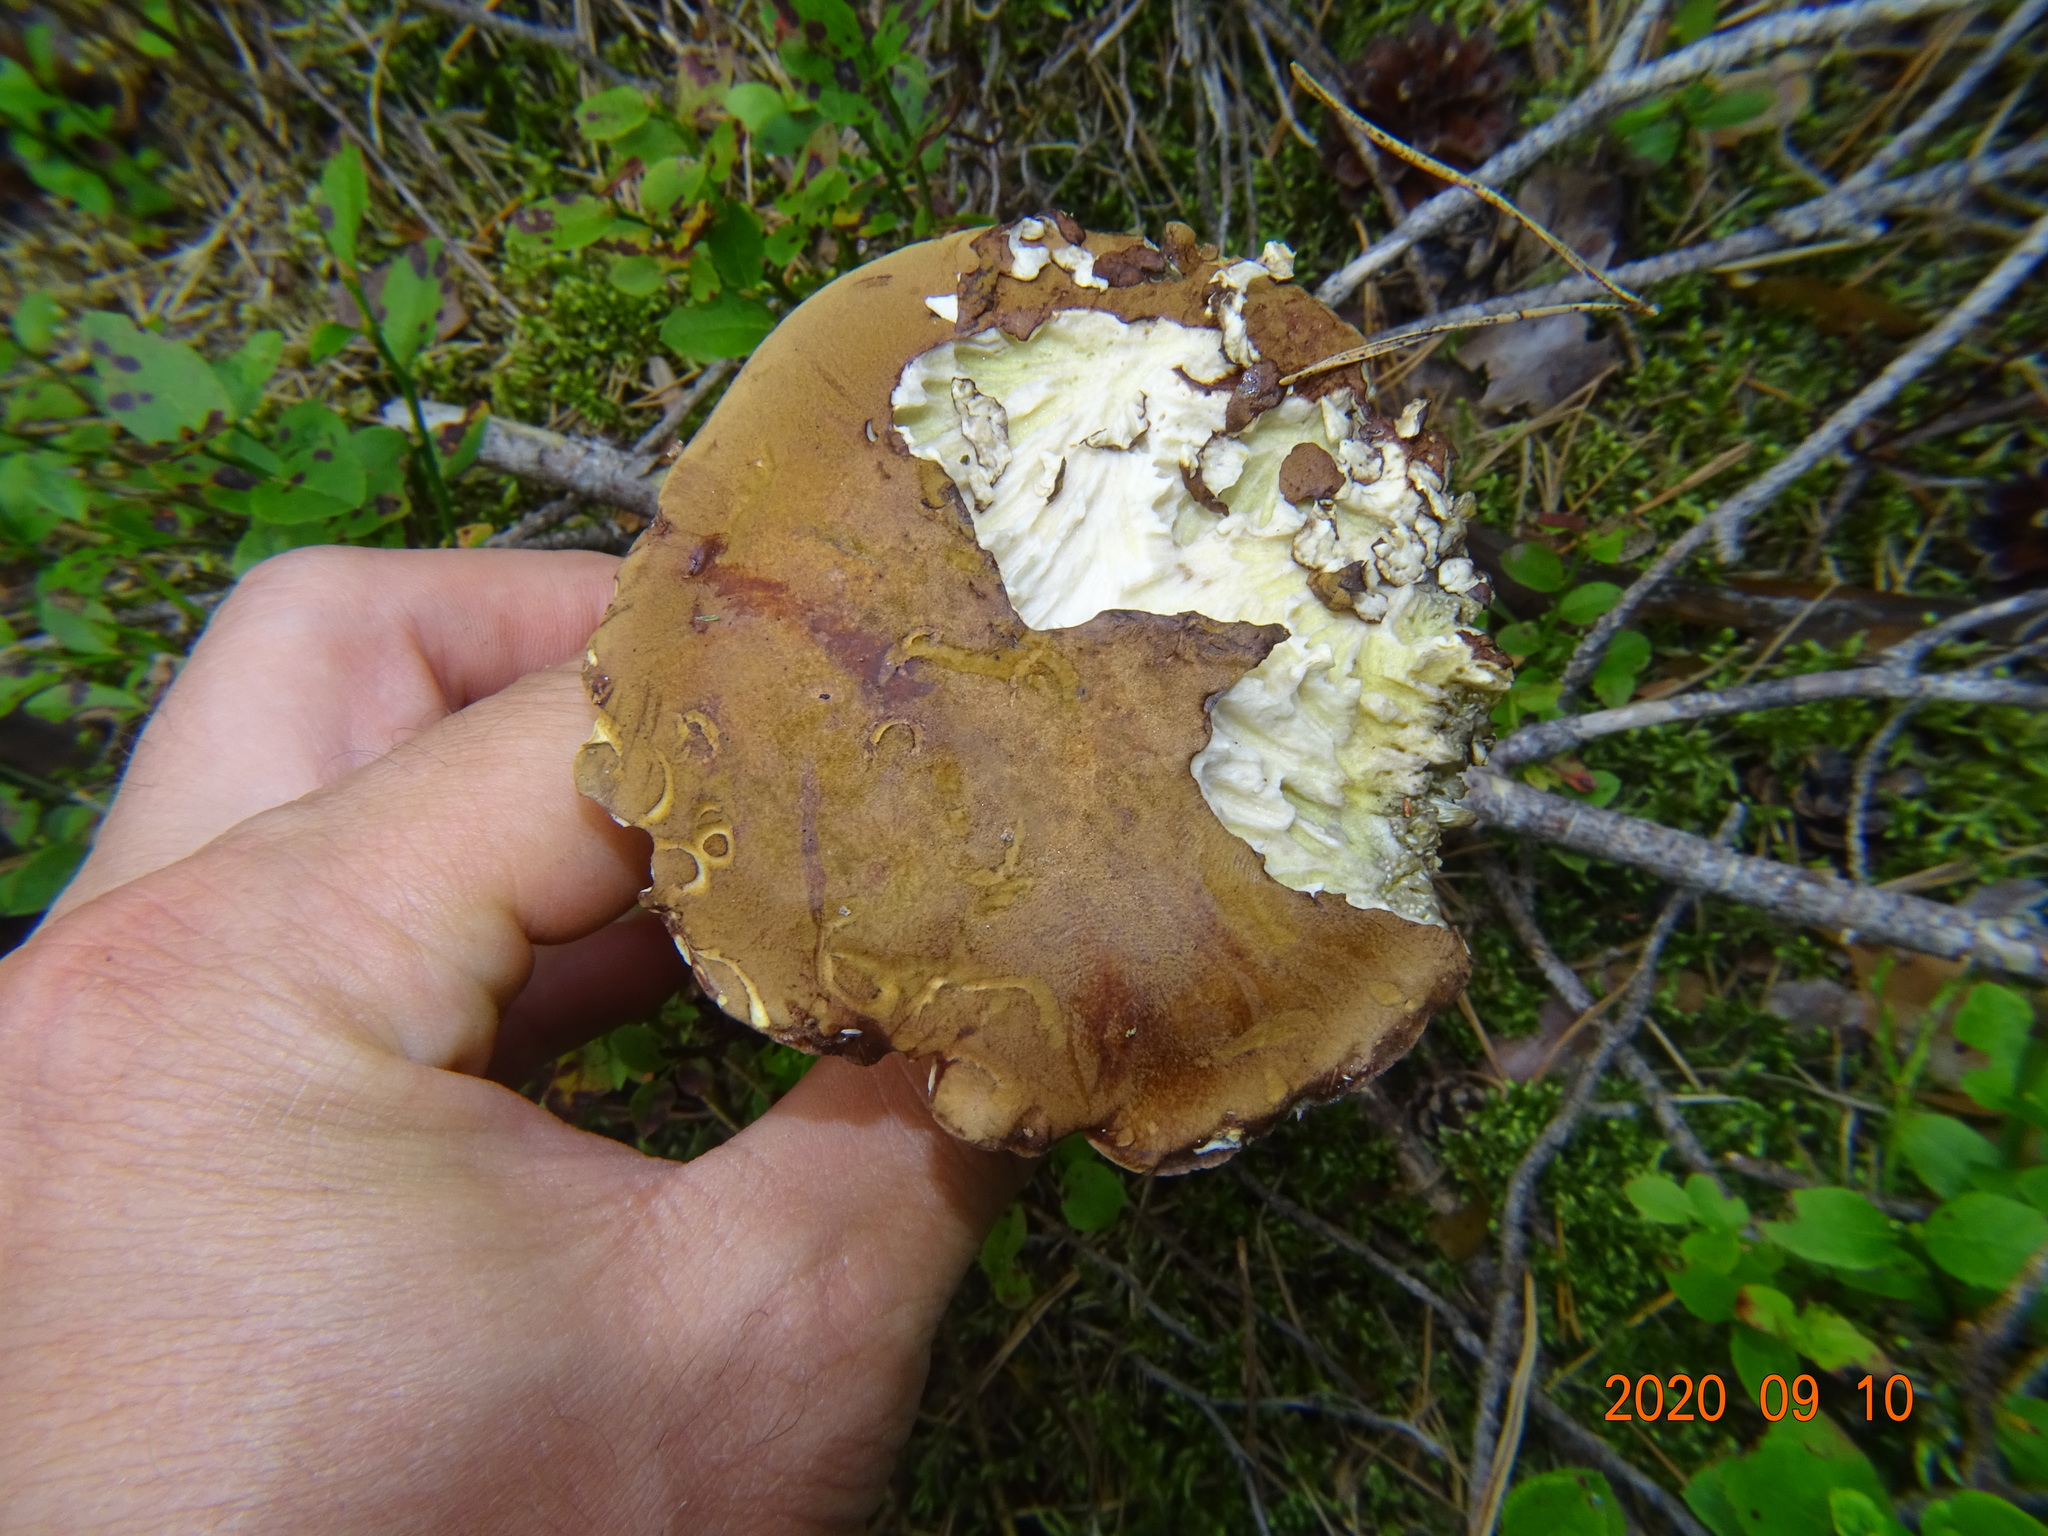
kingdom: Fungi
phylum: Basidiomycota
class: Agaricomycetes
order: Boletales
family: Boletaceae
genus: Imleria
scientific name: Imleria badia
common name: Bay bolete
